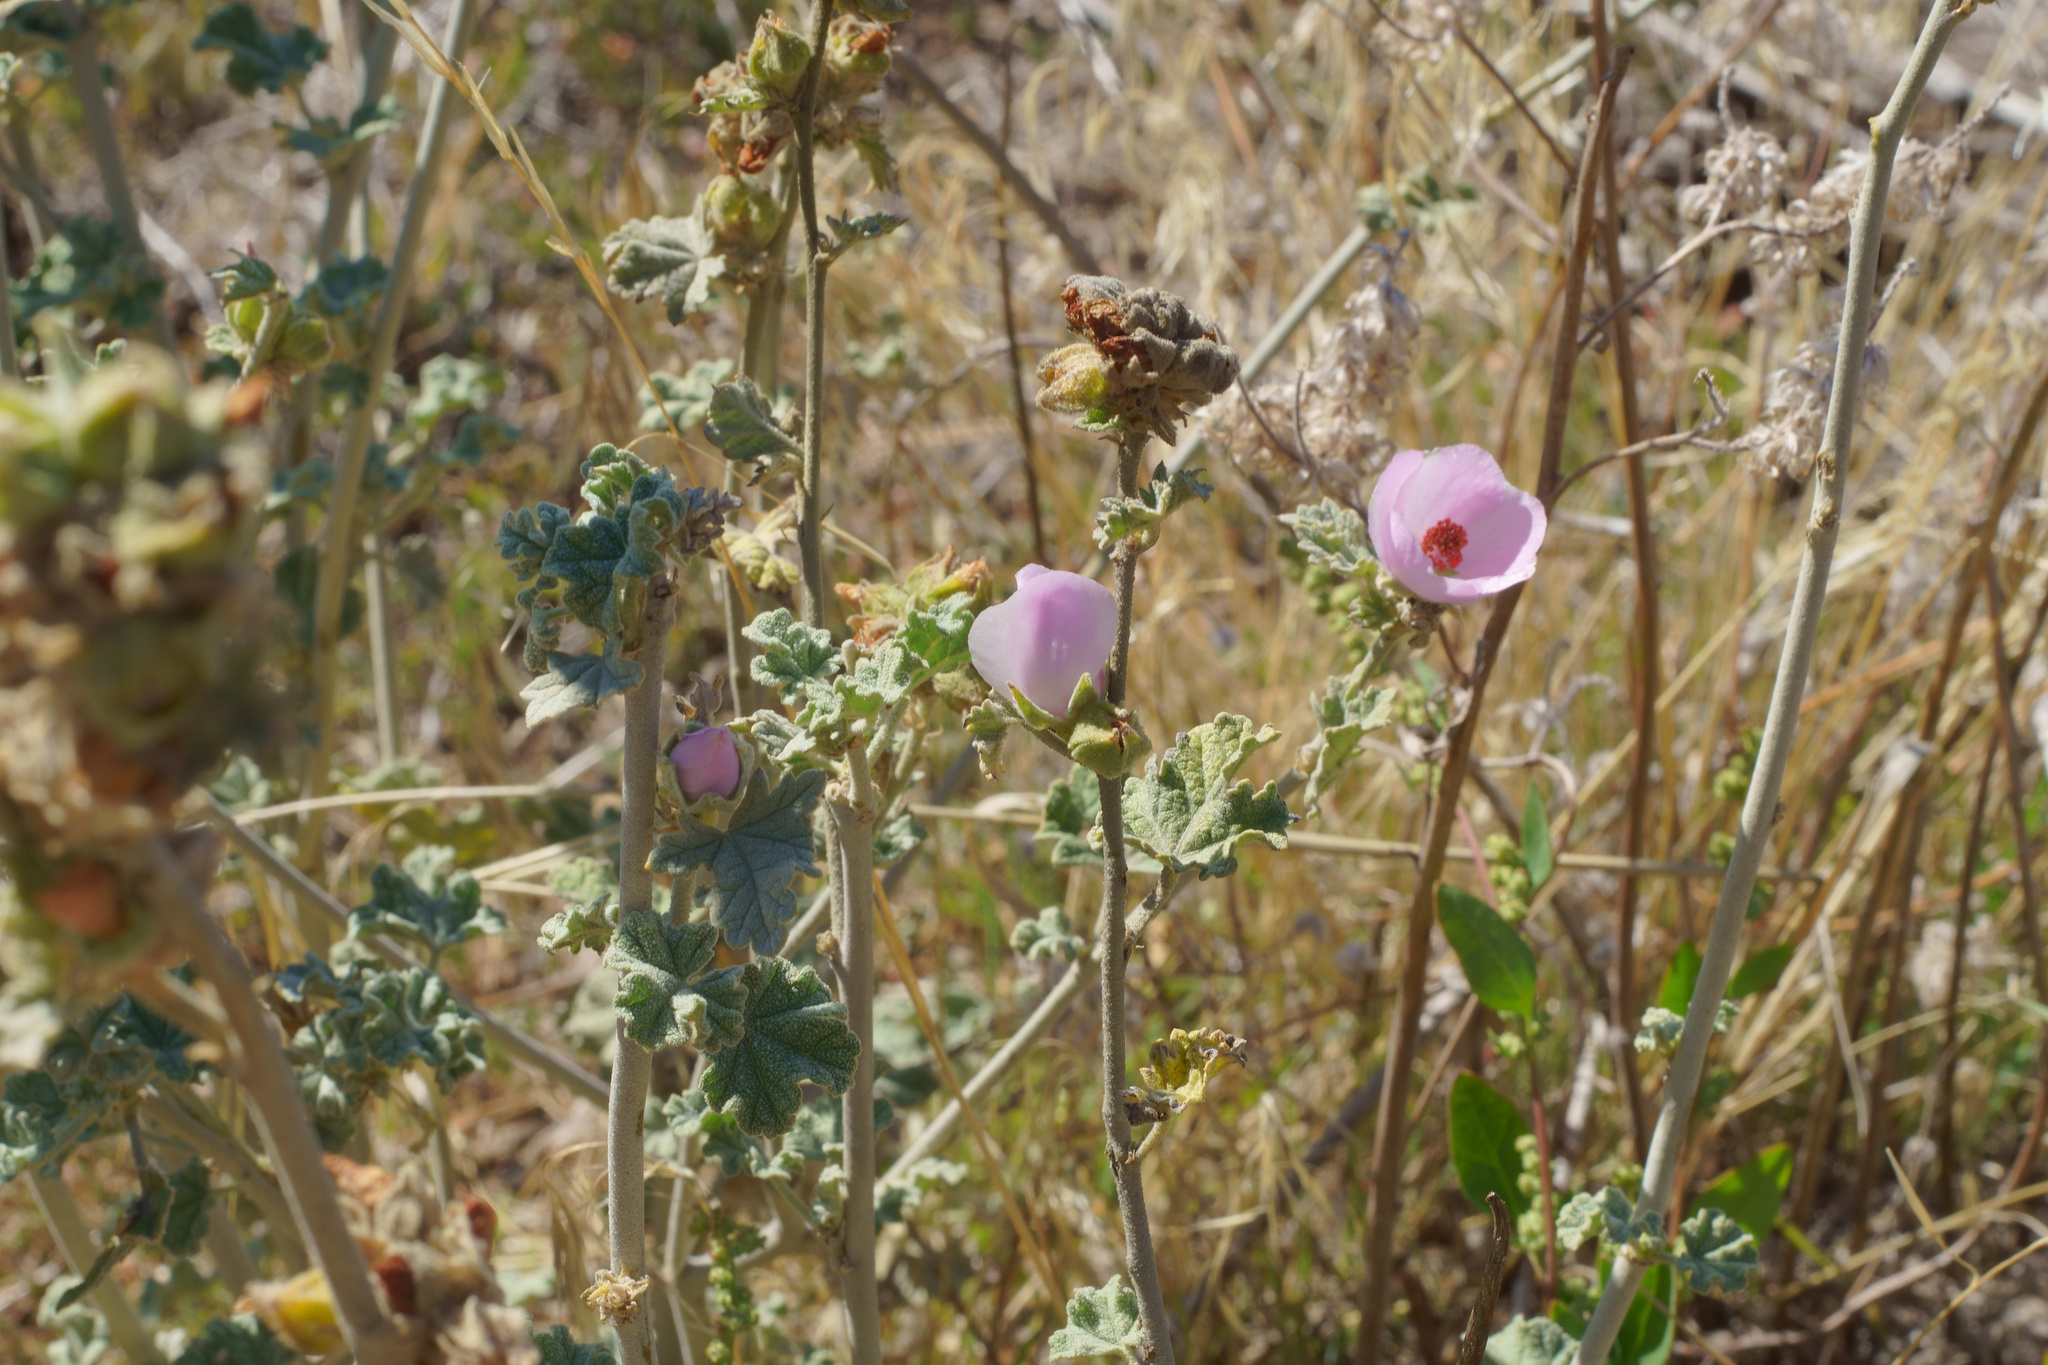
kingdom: Plantae
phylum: Tracheophyta
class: Magnoliopsida
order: Malvales
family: Malvaceae
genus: Malacothamnus
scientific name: Malacothamnus enigmaticus
